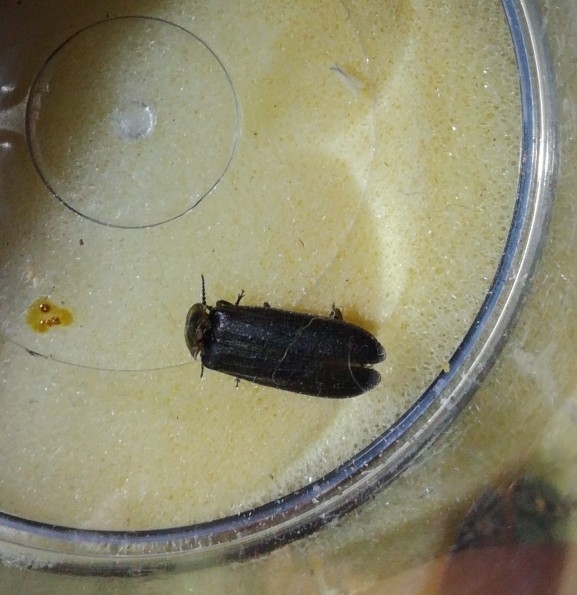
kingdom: Animalia
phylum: Arthropoda
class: Insecta
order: Coleoptera
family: Lampyridae
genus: Lampyris
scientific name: Lampyris noctiluca
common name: Glow-worm
